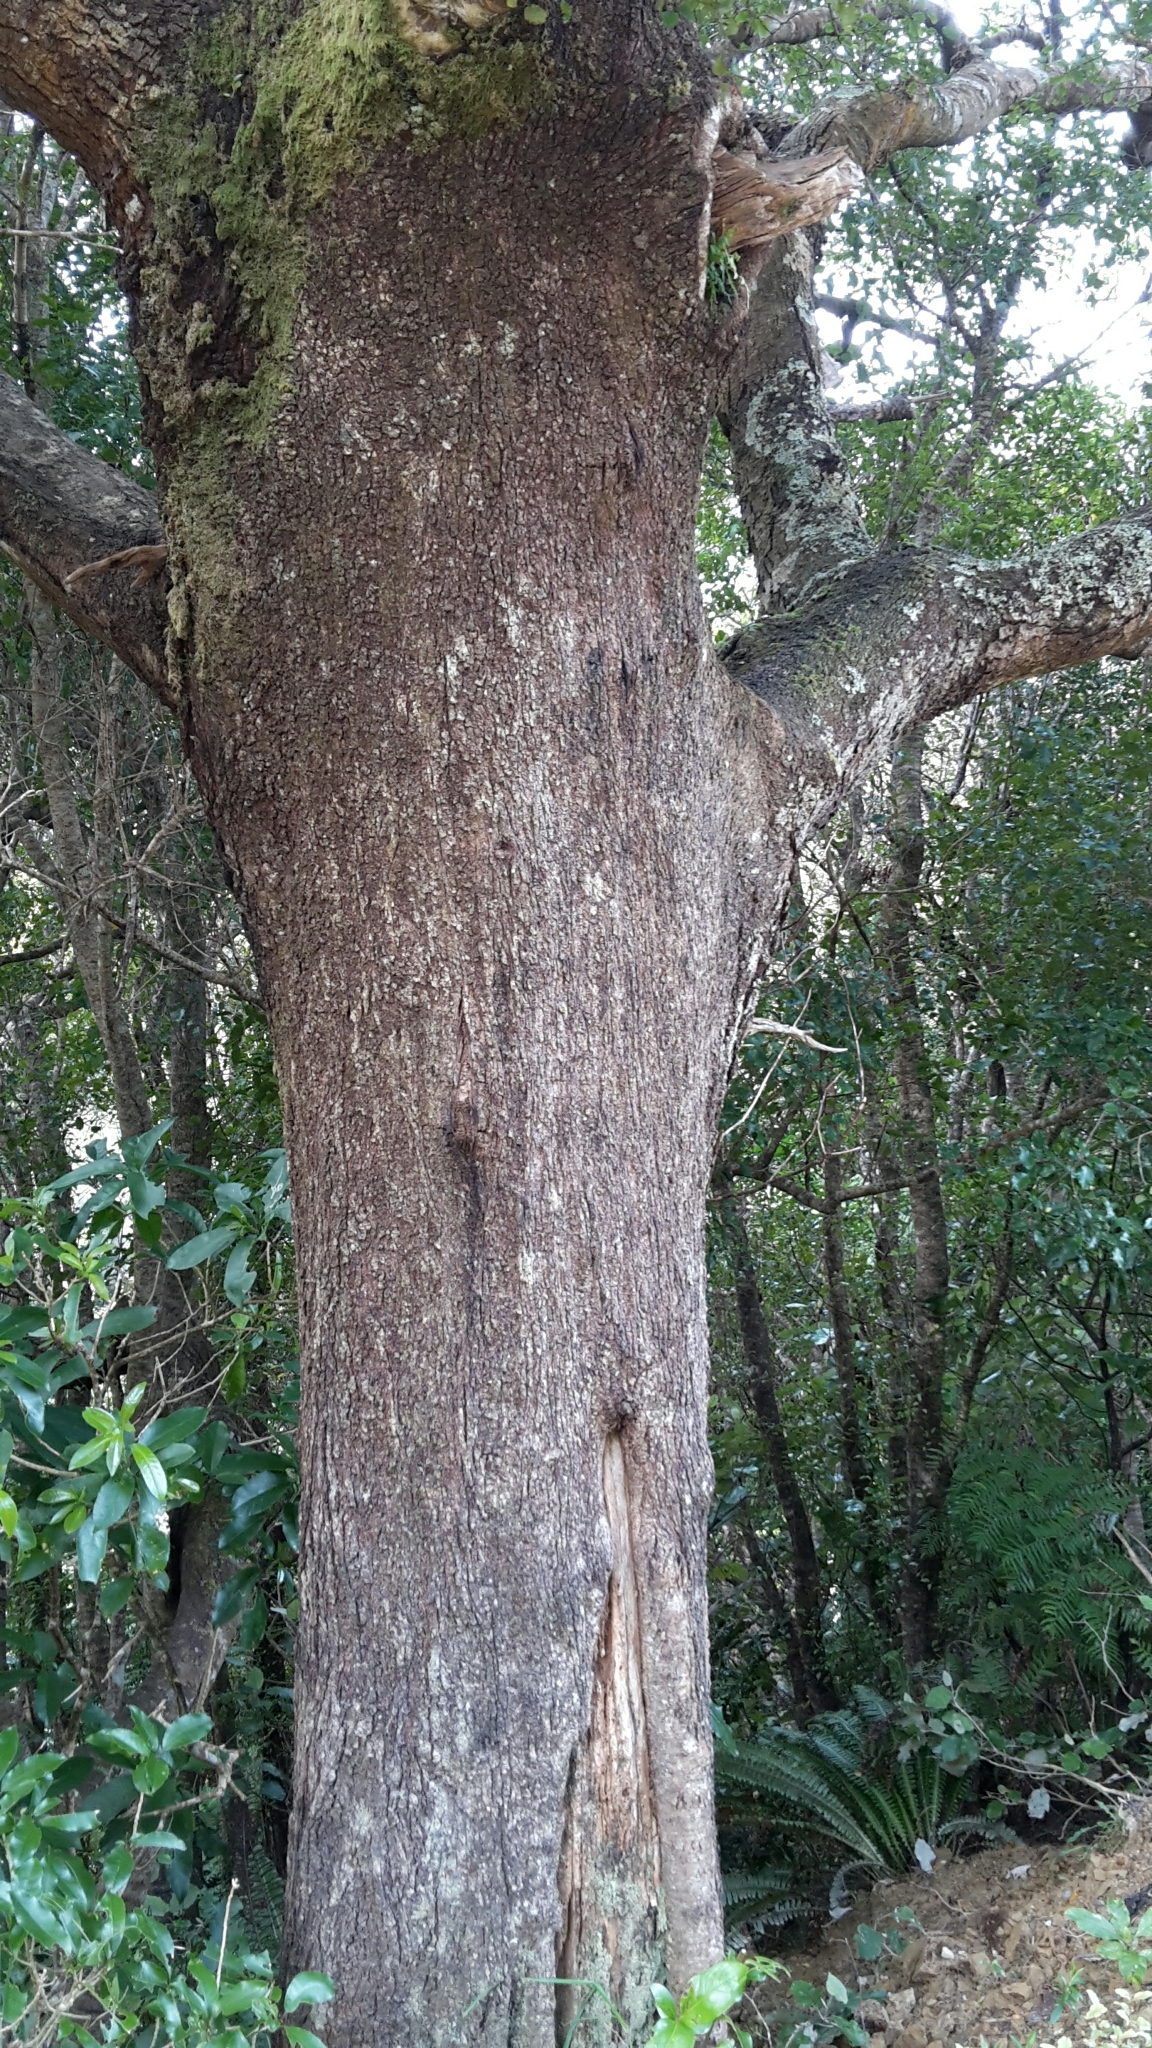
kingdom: Plantae
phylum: Tracheophyta
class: Magnoliopsida
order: Fagales
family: Nothofagaceae
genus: Nothofagus
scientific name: Nothofagus truncata
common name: Hard beech
